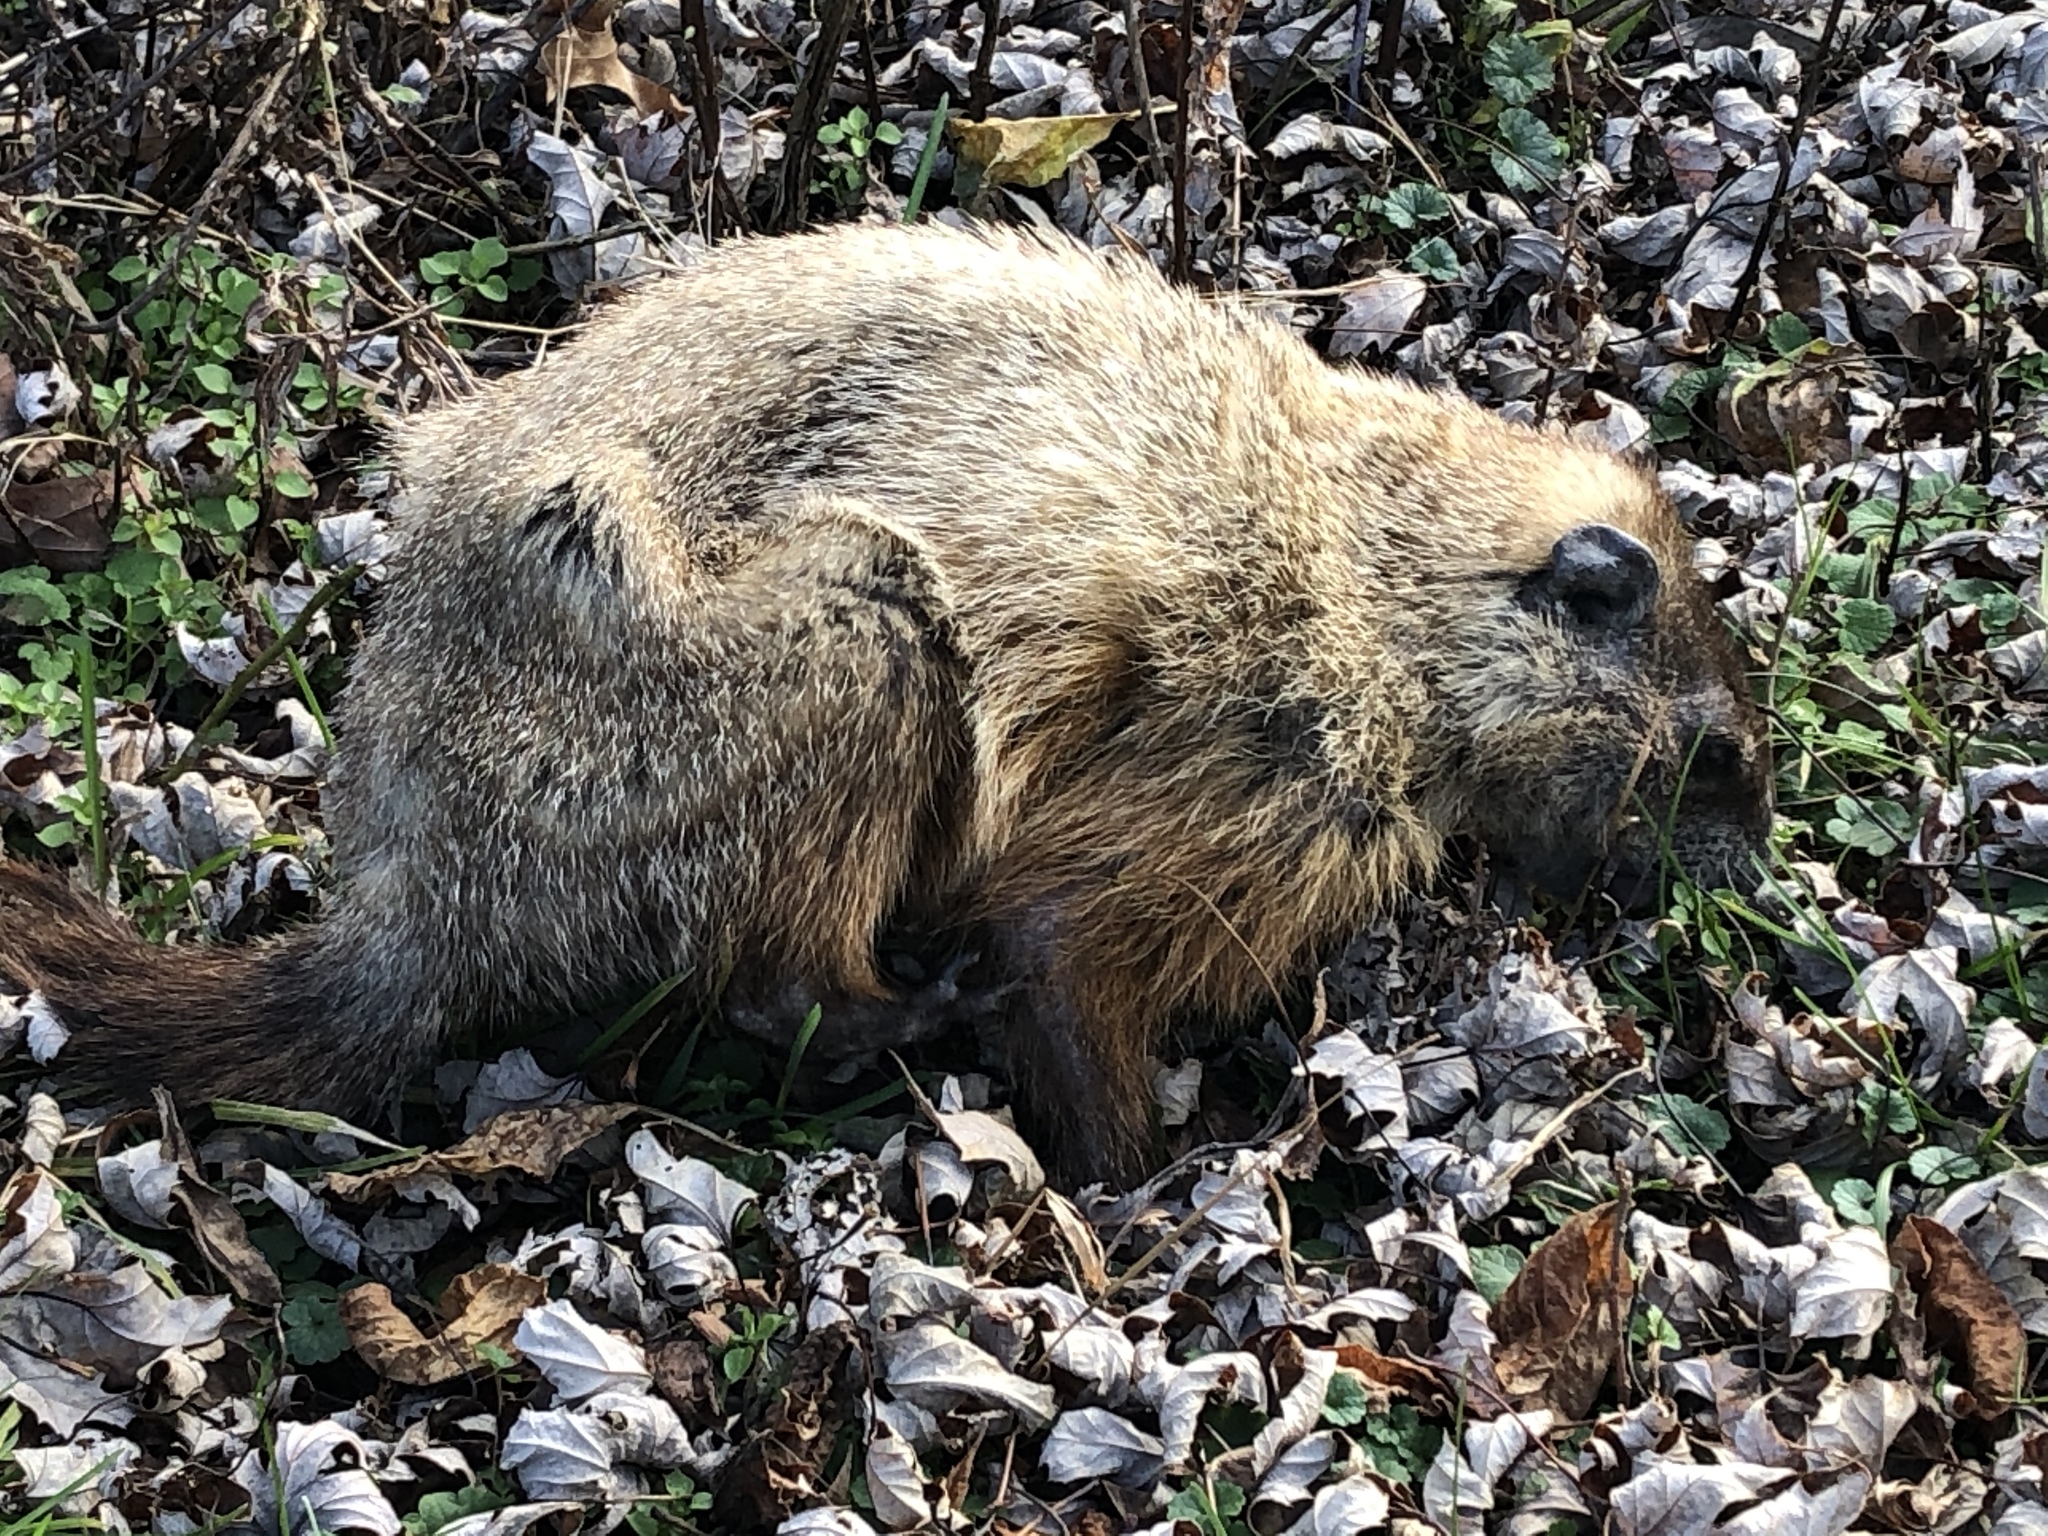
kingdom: Animalia
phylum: Chordata
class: Mammalia
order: Rodentia
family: Sciuridae
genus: Marmota
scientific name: Marmota monax
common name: Groundhog
